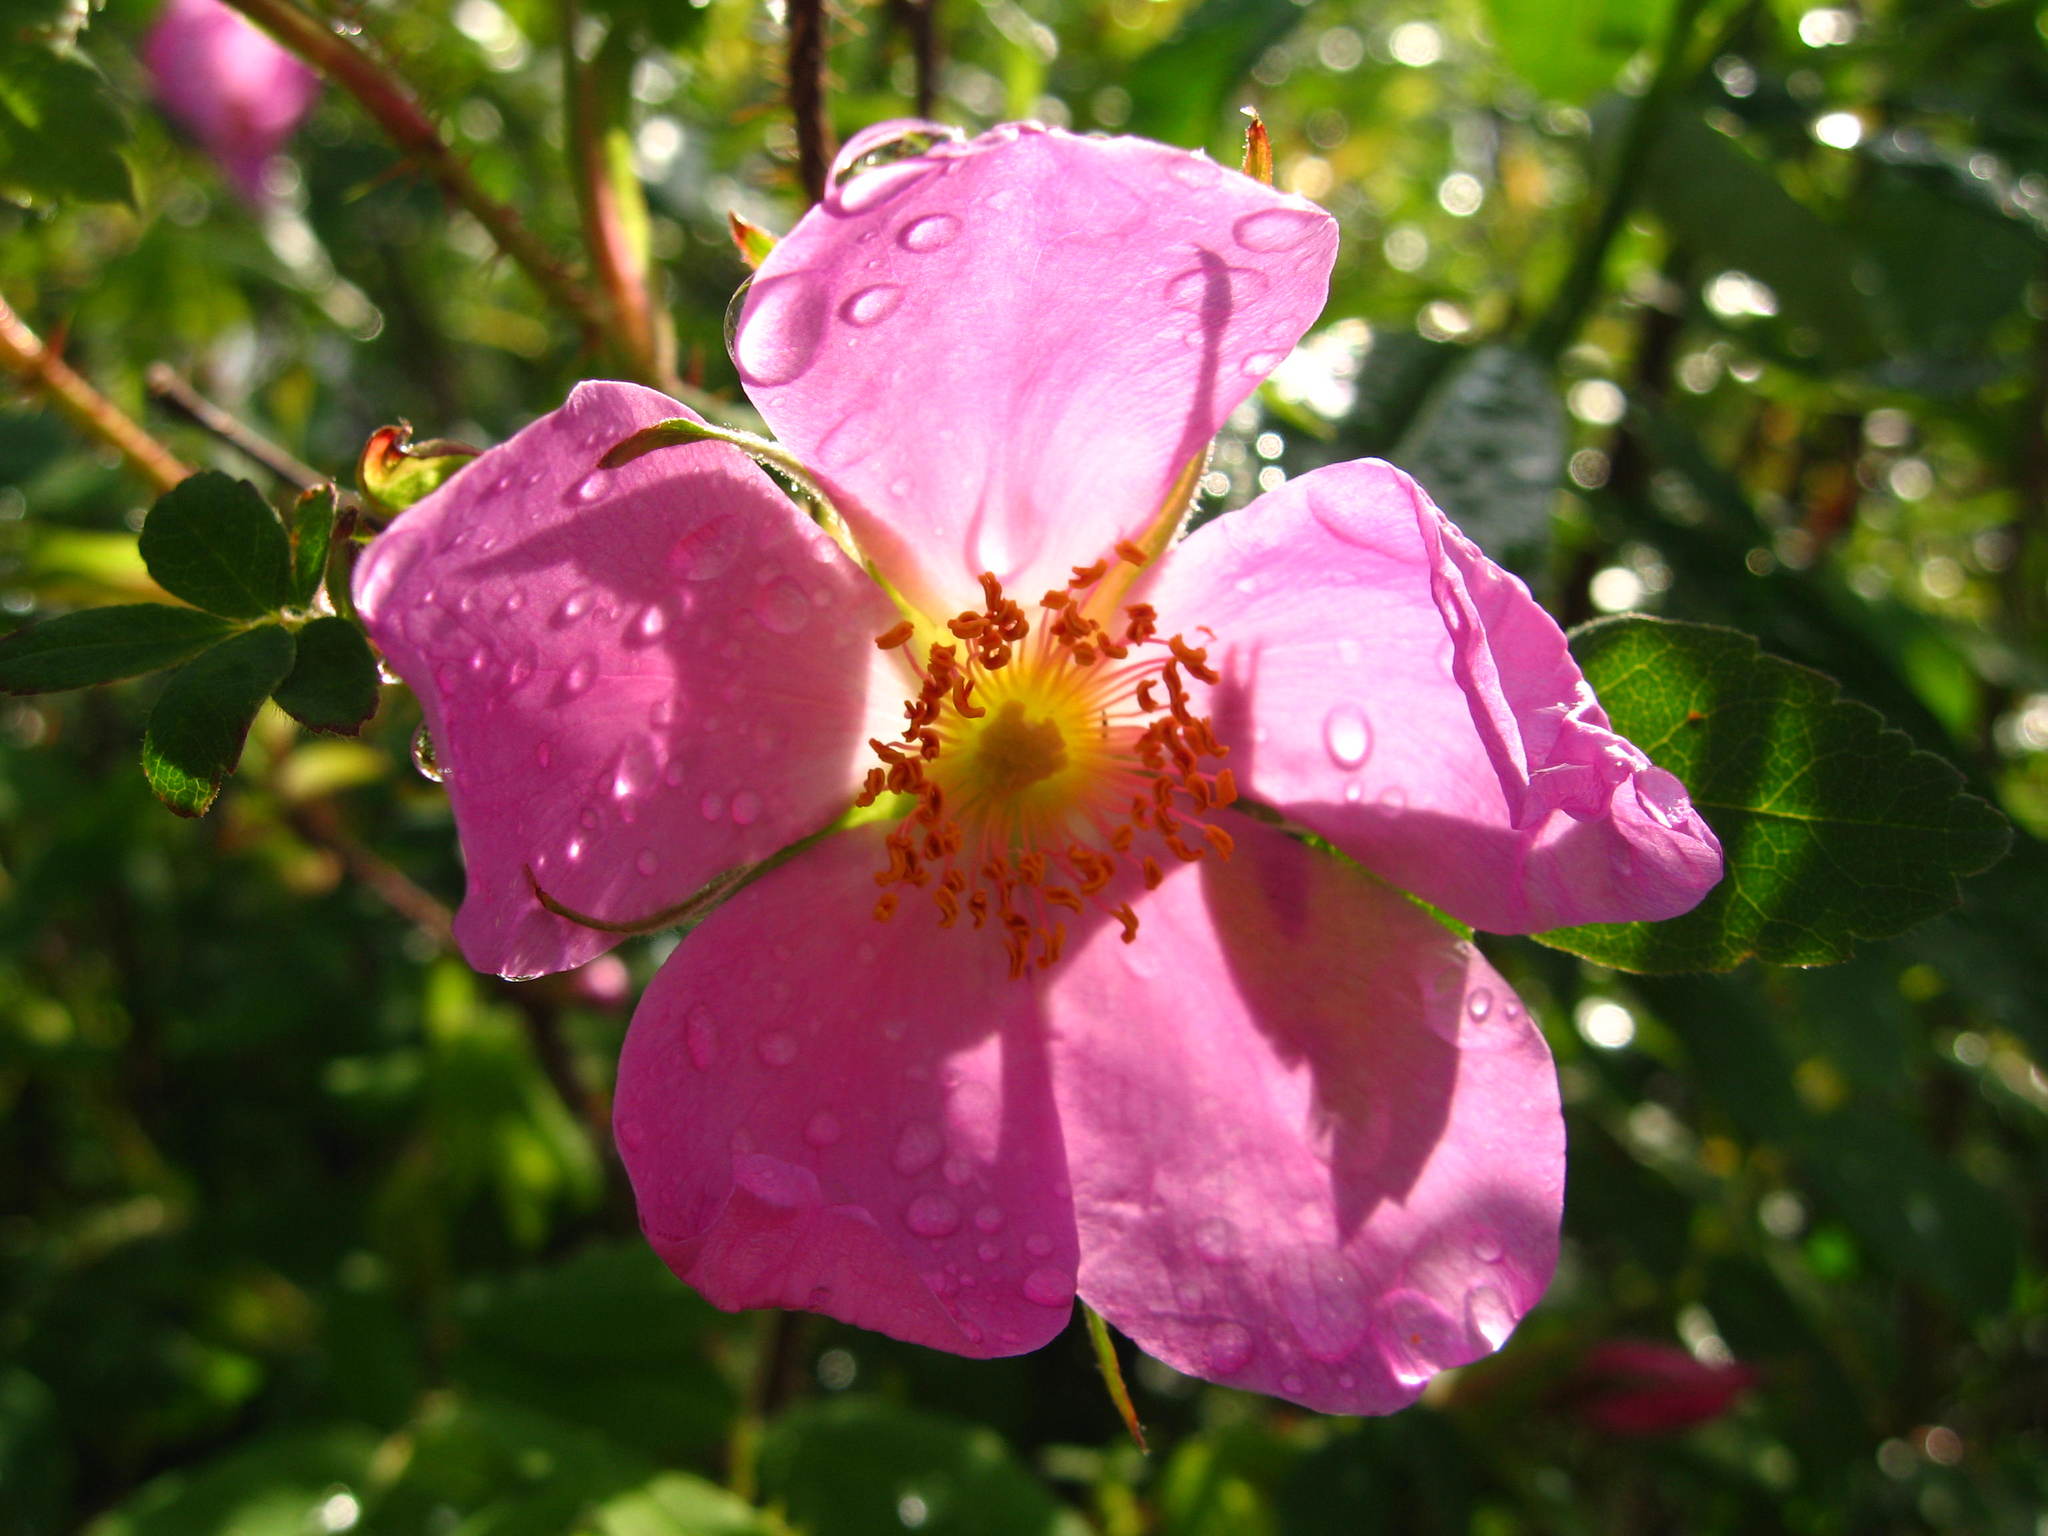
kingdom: Plantae
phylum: Tracheophyta
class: Magnoliopsida
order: Rosales
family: Rosaceae
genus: Rosa
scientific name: Rosa acicularis
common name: Prickly rose
